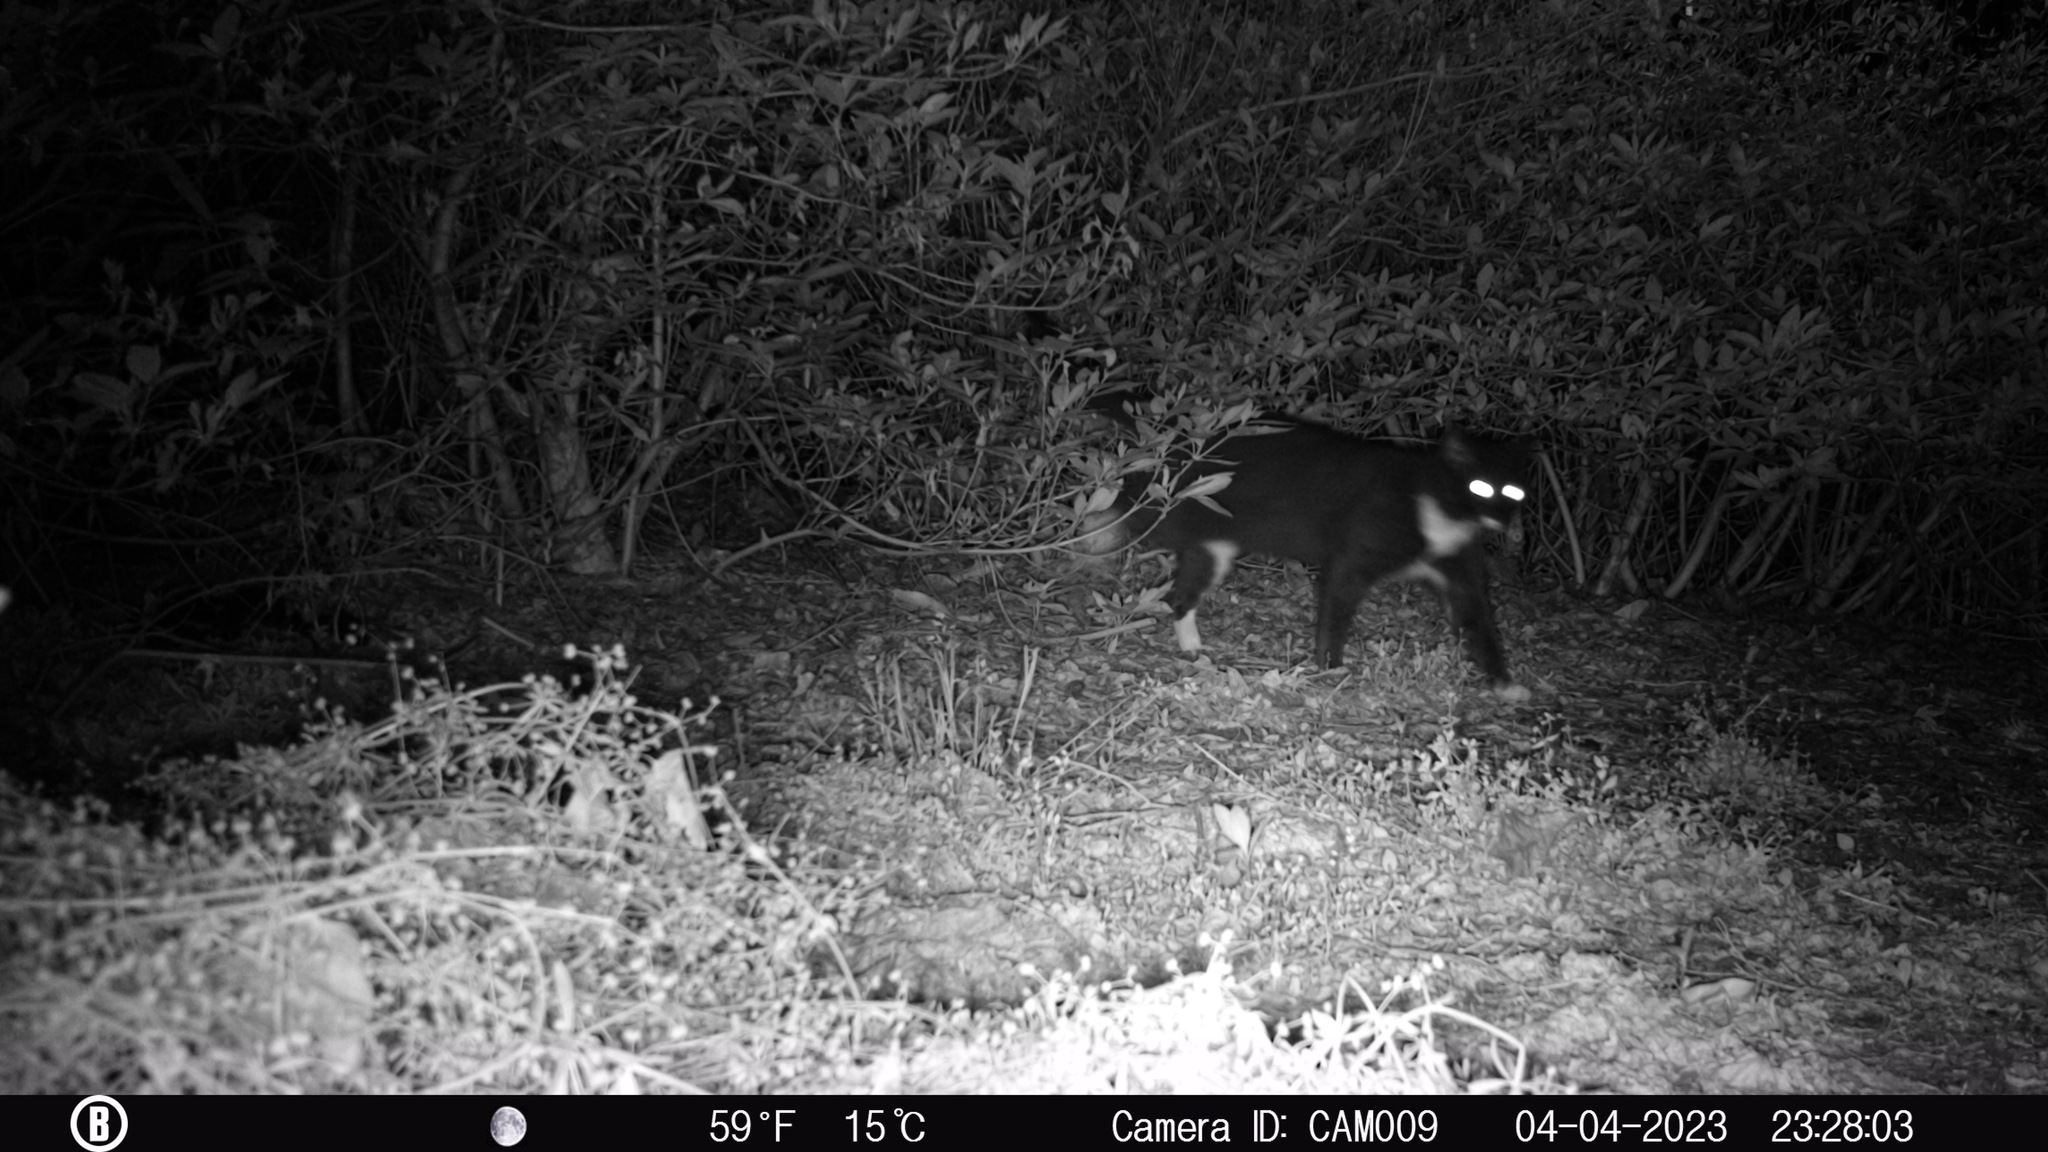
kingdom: Animalia
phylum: Chordata
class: Mammalia
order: Carnivora
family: Felidae
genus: Felis
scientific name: Felis catus
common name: Domestic cat
